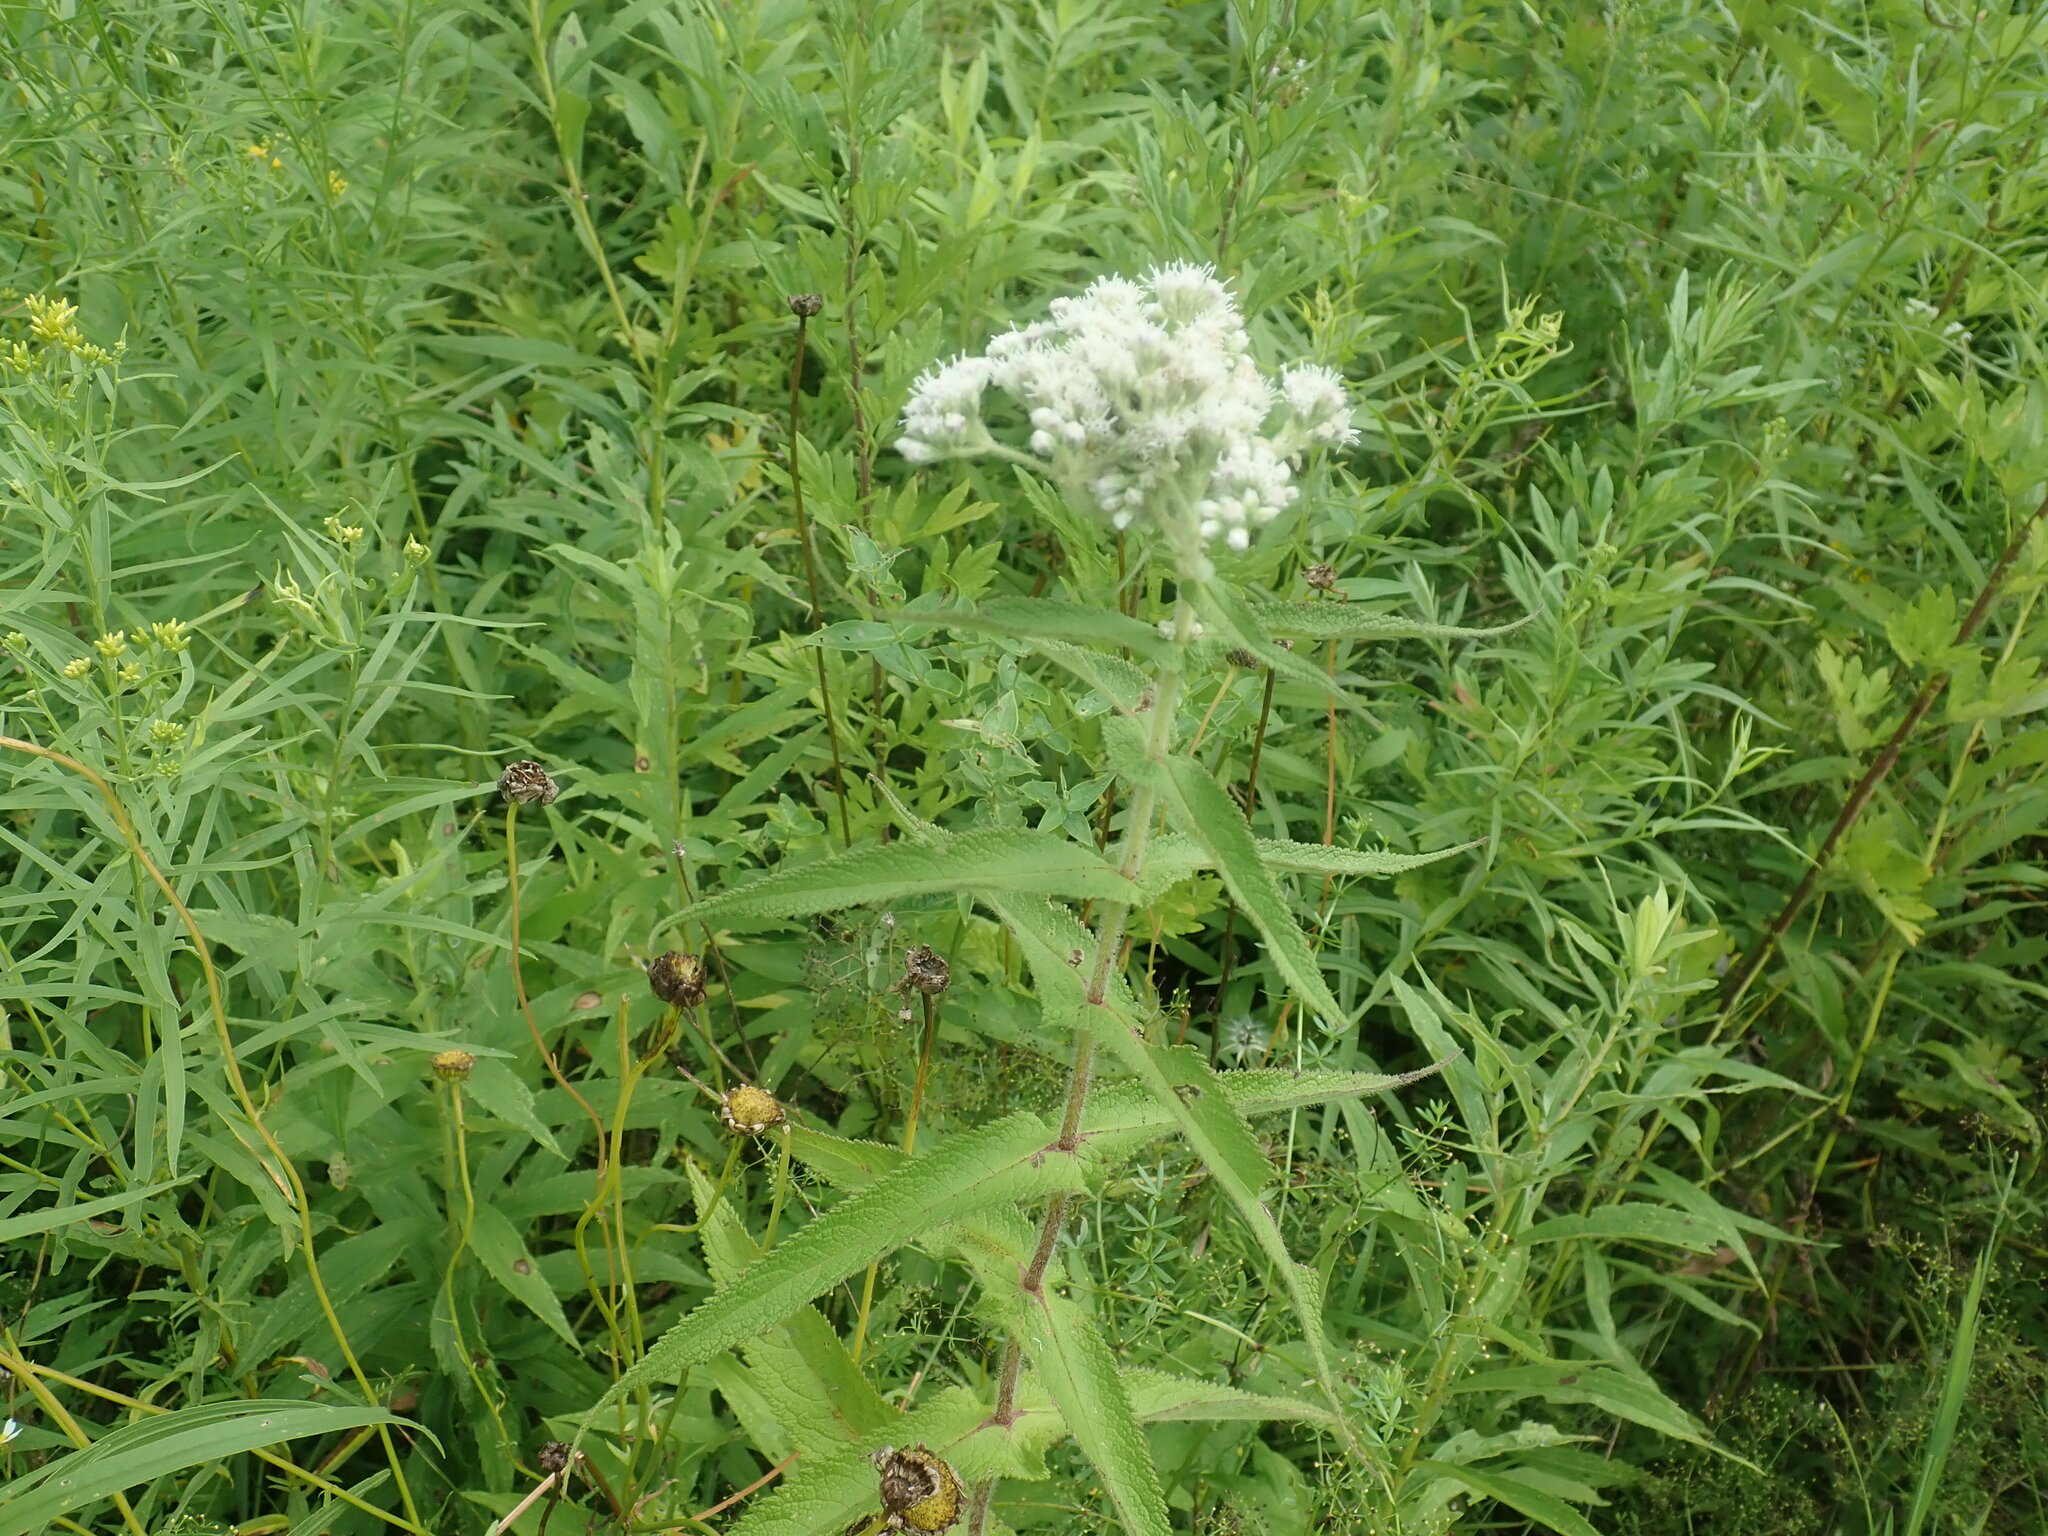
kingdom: Plantae
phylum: Tracheophyta
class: Magnoliopsida
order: Asterales
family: Asteraceae
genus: Eupatorium
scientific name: Eupatorium perfoliatum
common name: Boneset
